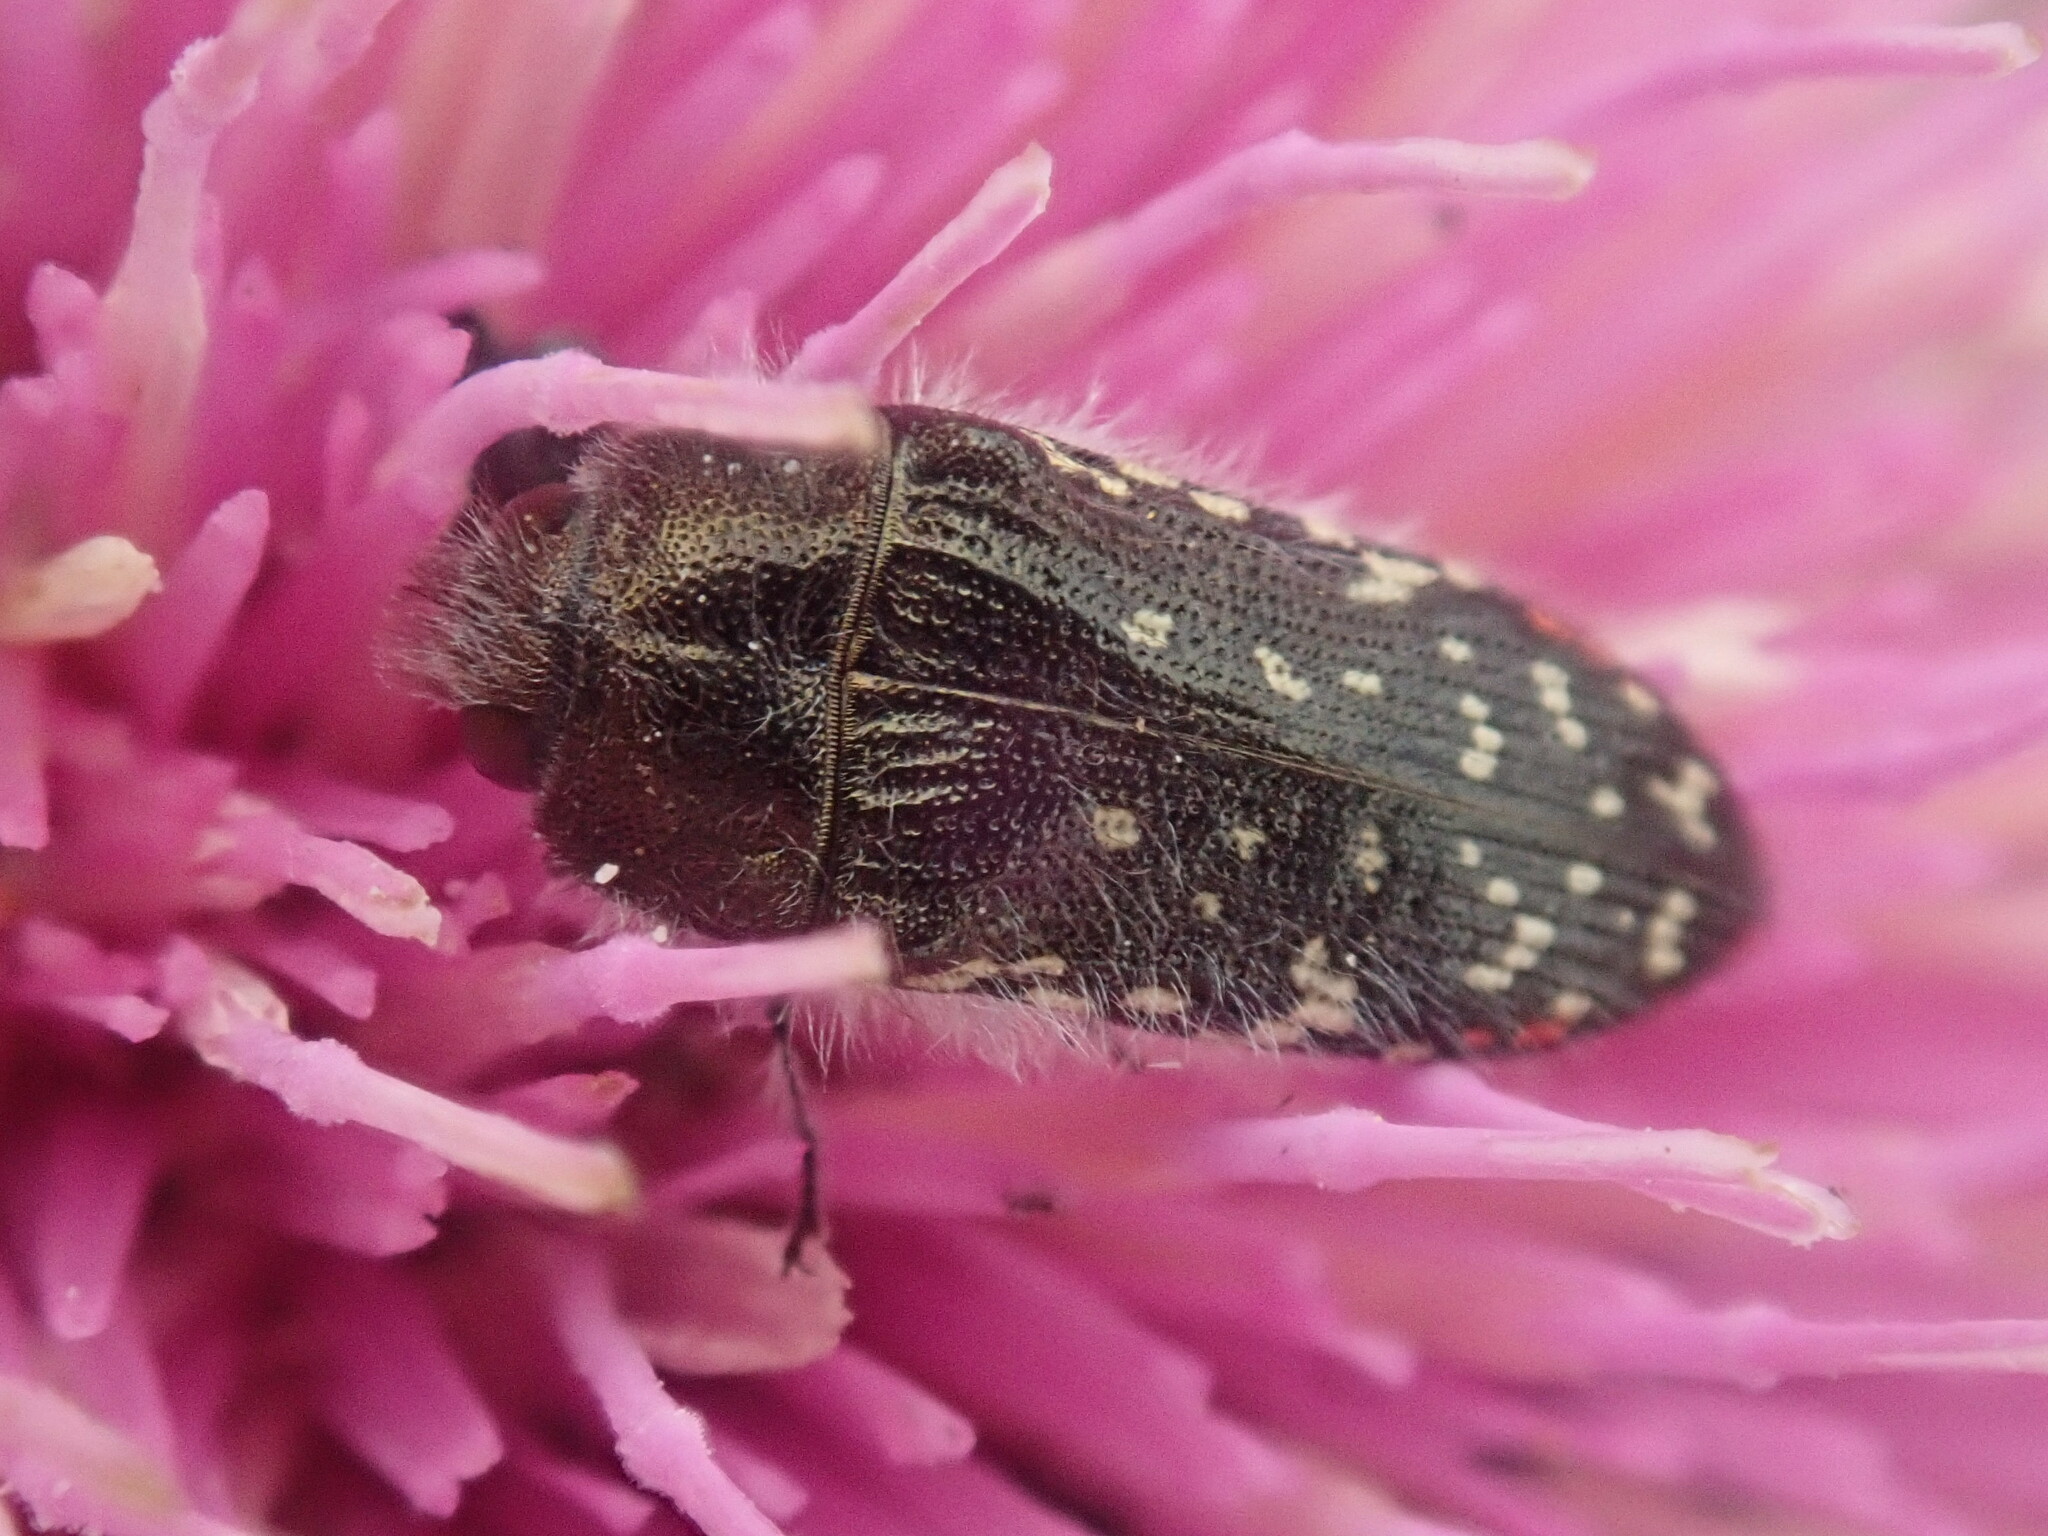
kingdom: Animalia
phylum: Arthropoda
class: Insecta
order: Coleoptera
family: Buprestidae
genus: Acmaeodera
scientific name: Acmaeodera rubronotata
